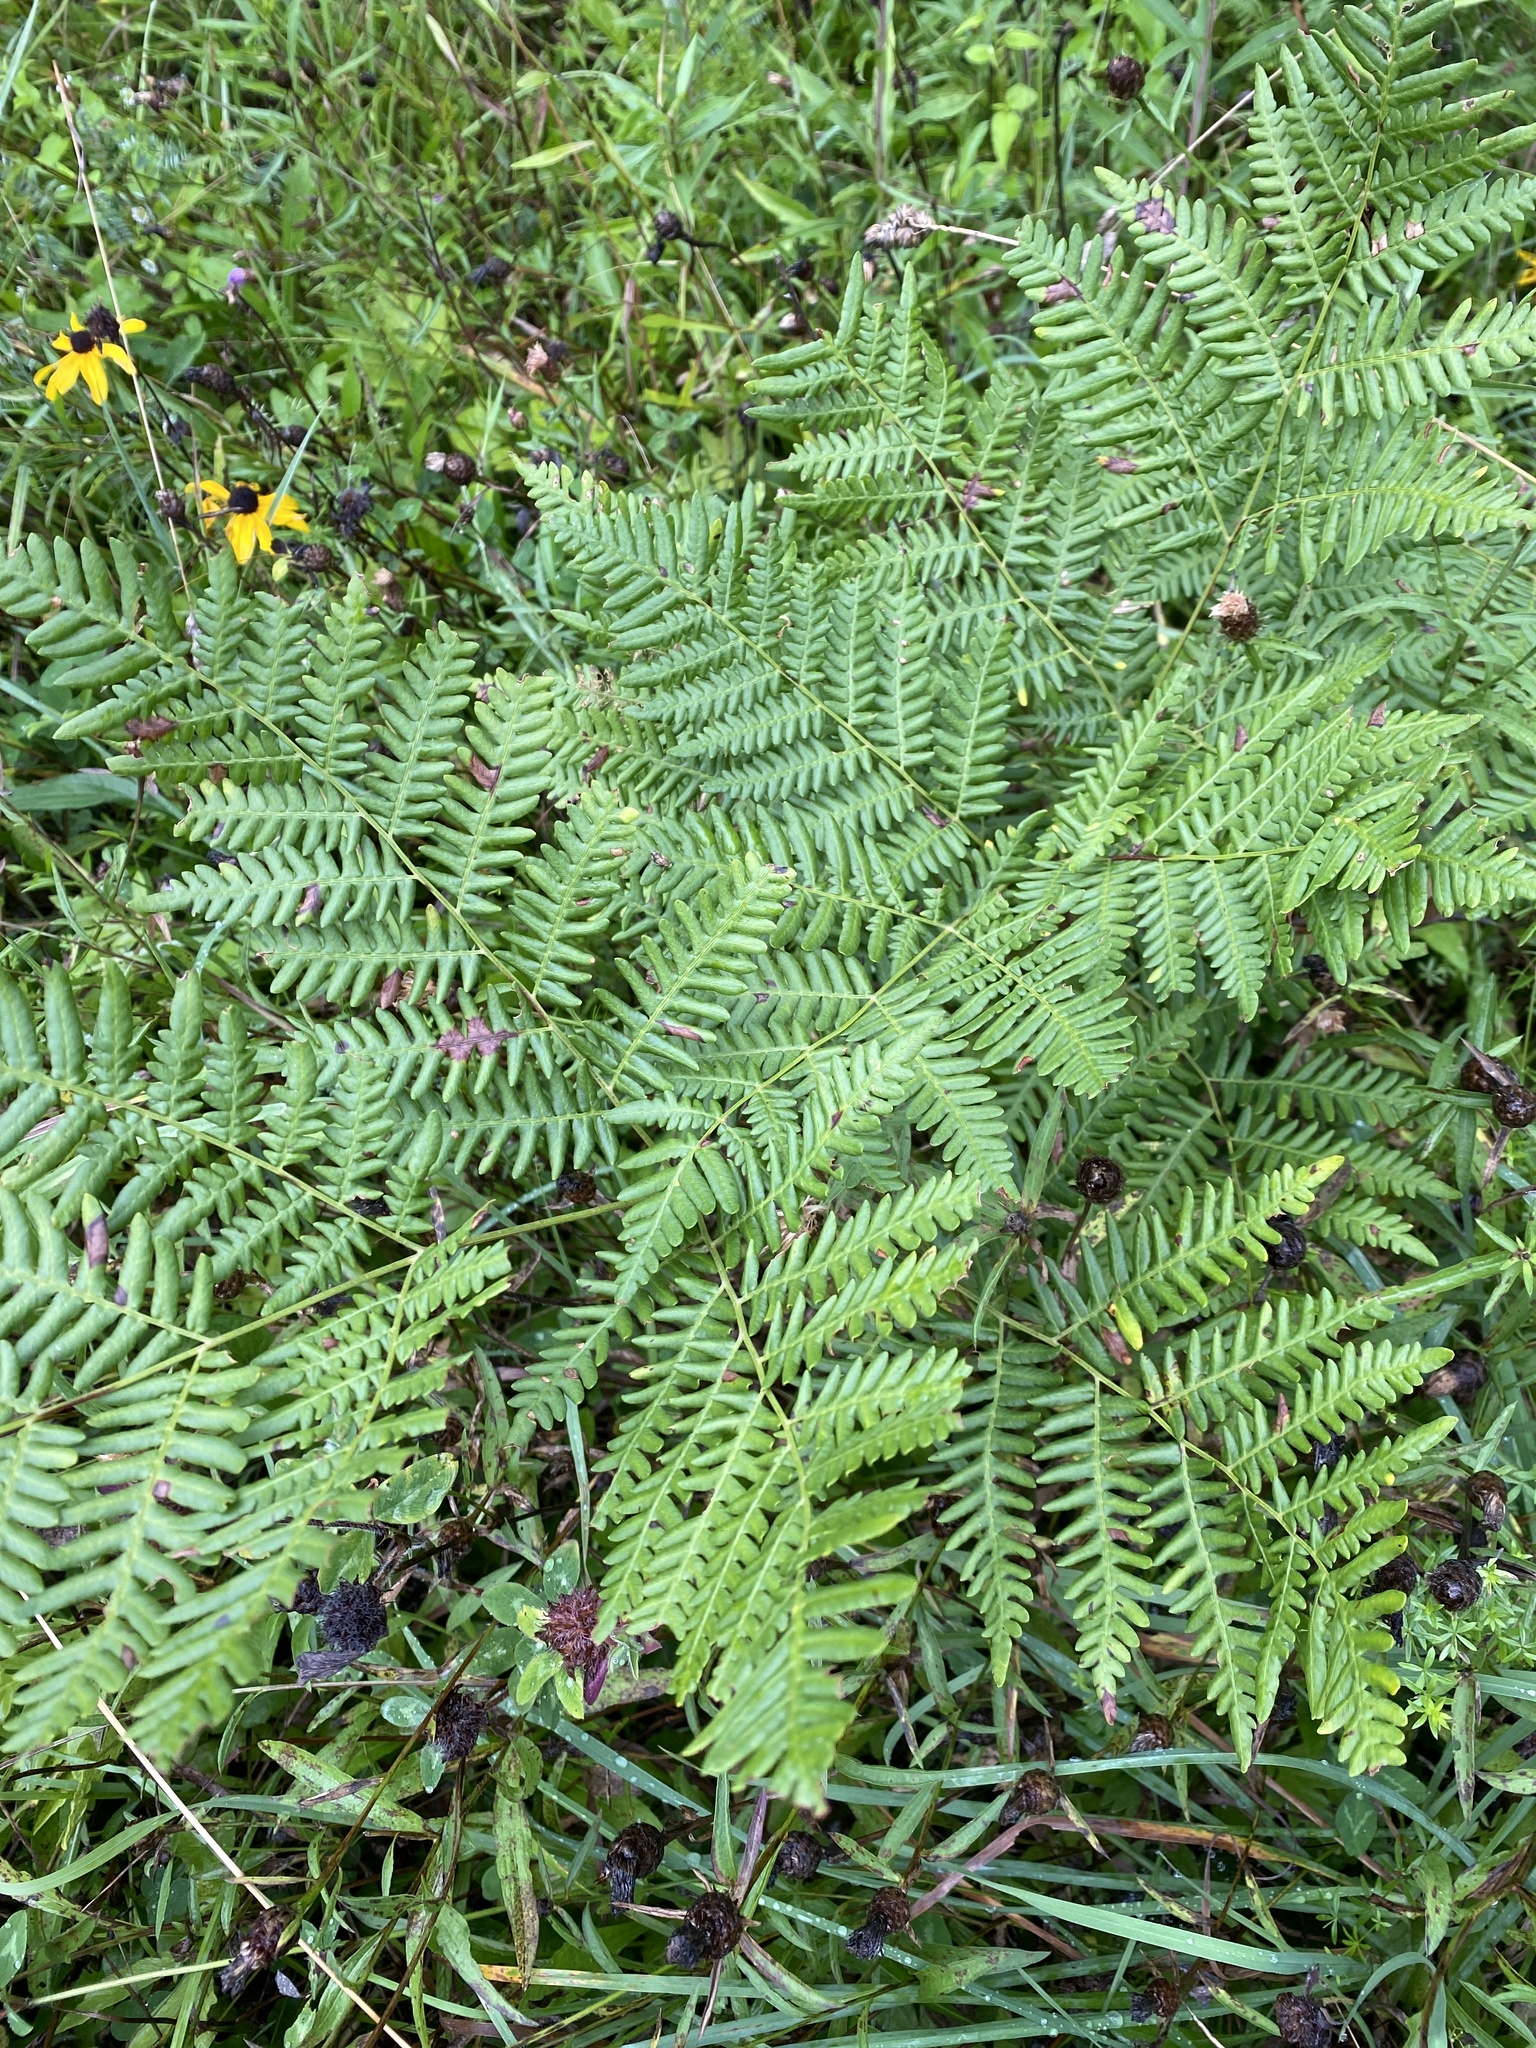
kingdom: Plantae
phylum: Tracheophyta
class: Polypodiopsida
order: Polypodiales
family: Dennstaedtiaceae
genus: Pteridium
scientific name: Pteridium aquilinum
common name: Bracken
